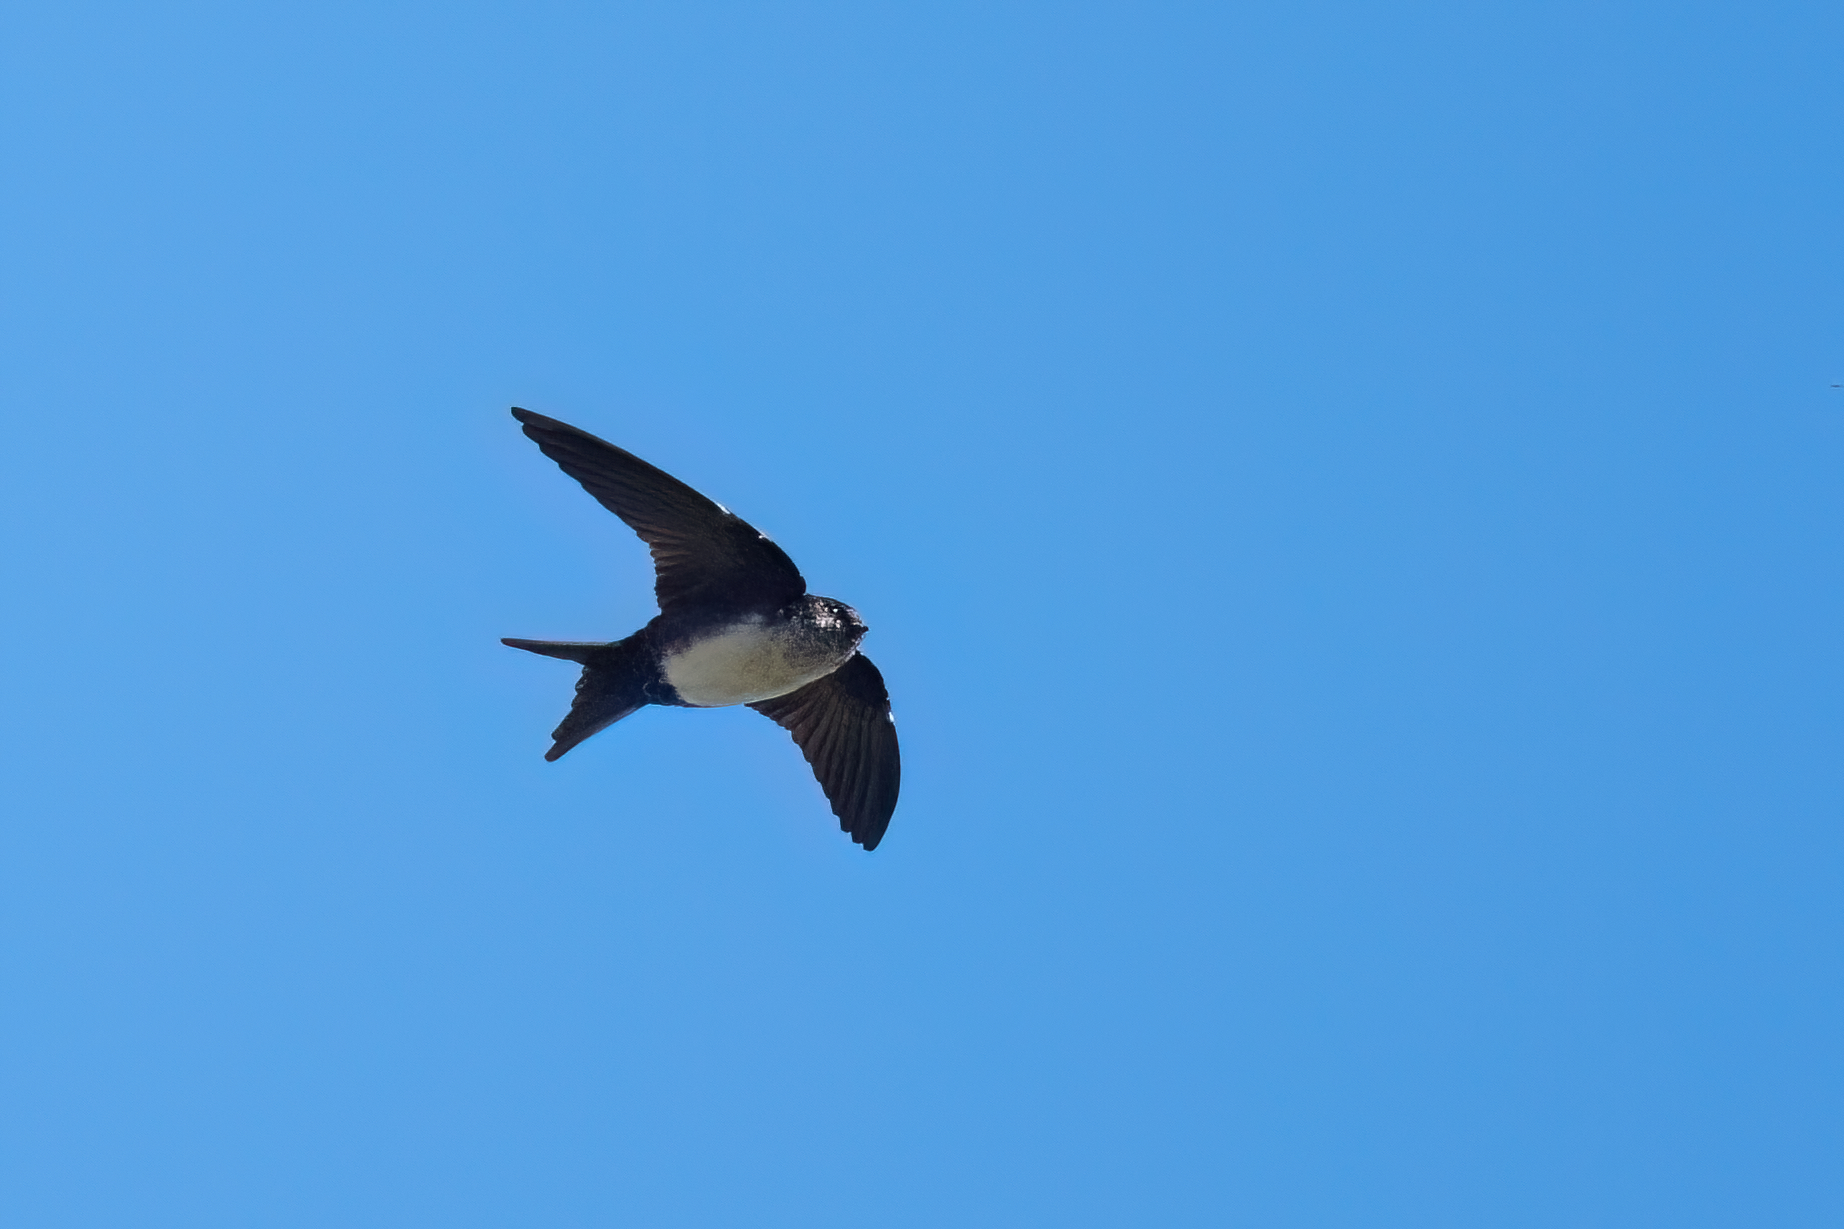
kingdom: Animalia
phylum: Chordata
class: Aves
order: Passeriformes
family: Hirundinidae
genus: Notiochelidon
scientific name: Notiochelidon pileata
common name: Black-capped swallow
